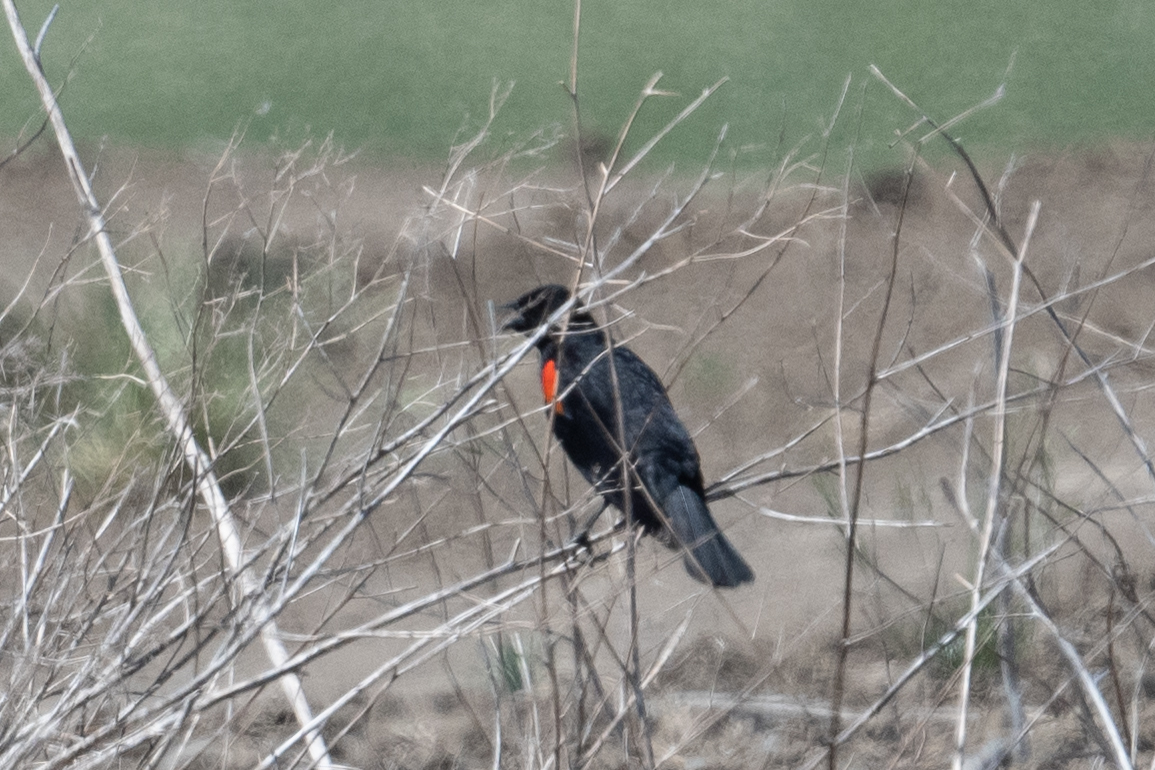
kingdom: Animalia
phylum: Chordata
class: Aves
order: Passeriformes
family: Icteridae
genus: Agelaius
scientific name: Agelaius phoeniceus
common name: Red-winged blackbird
